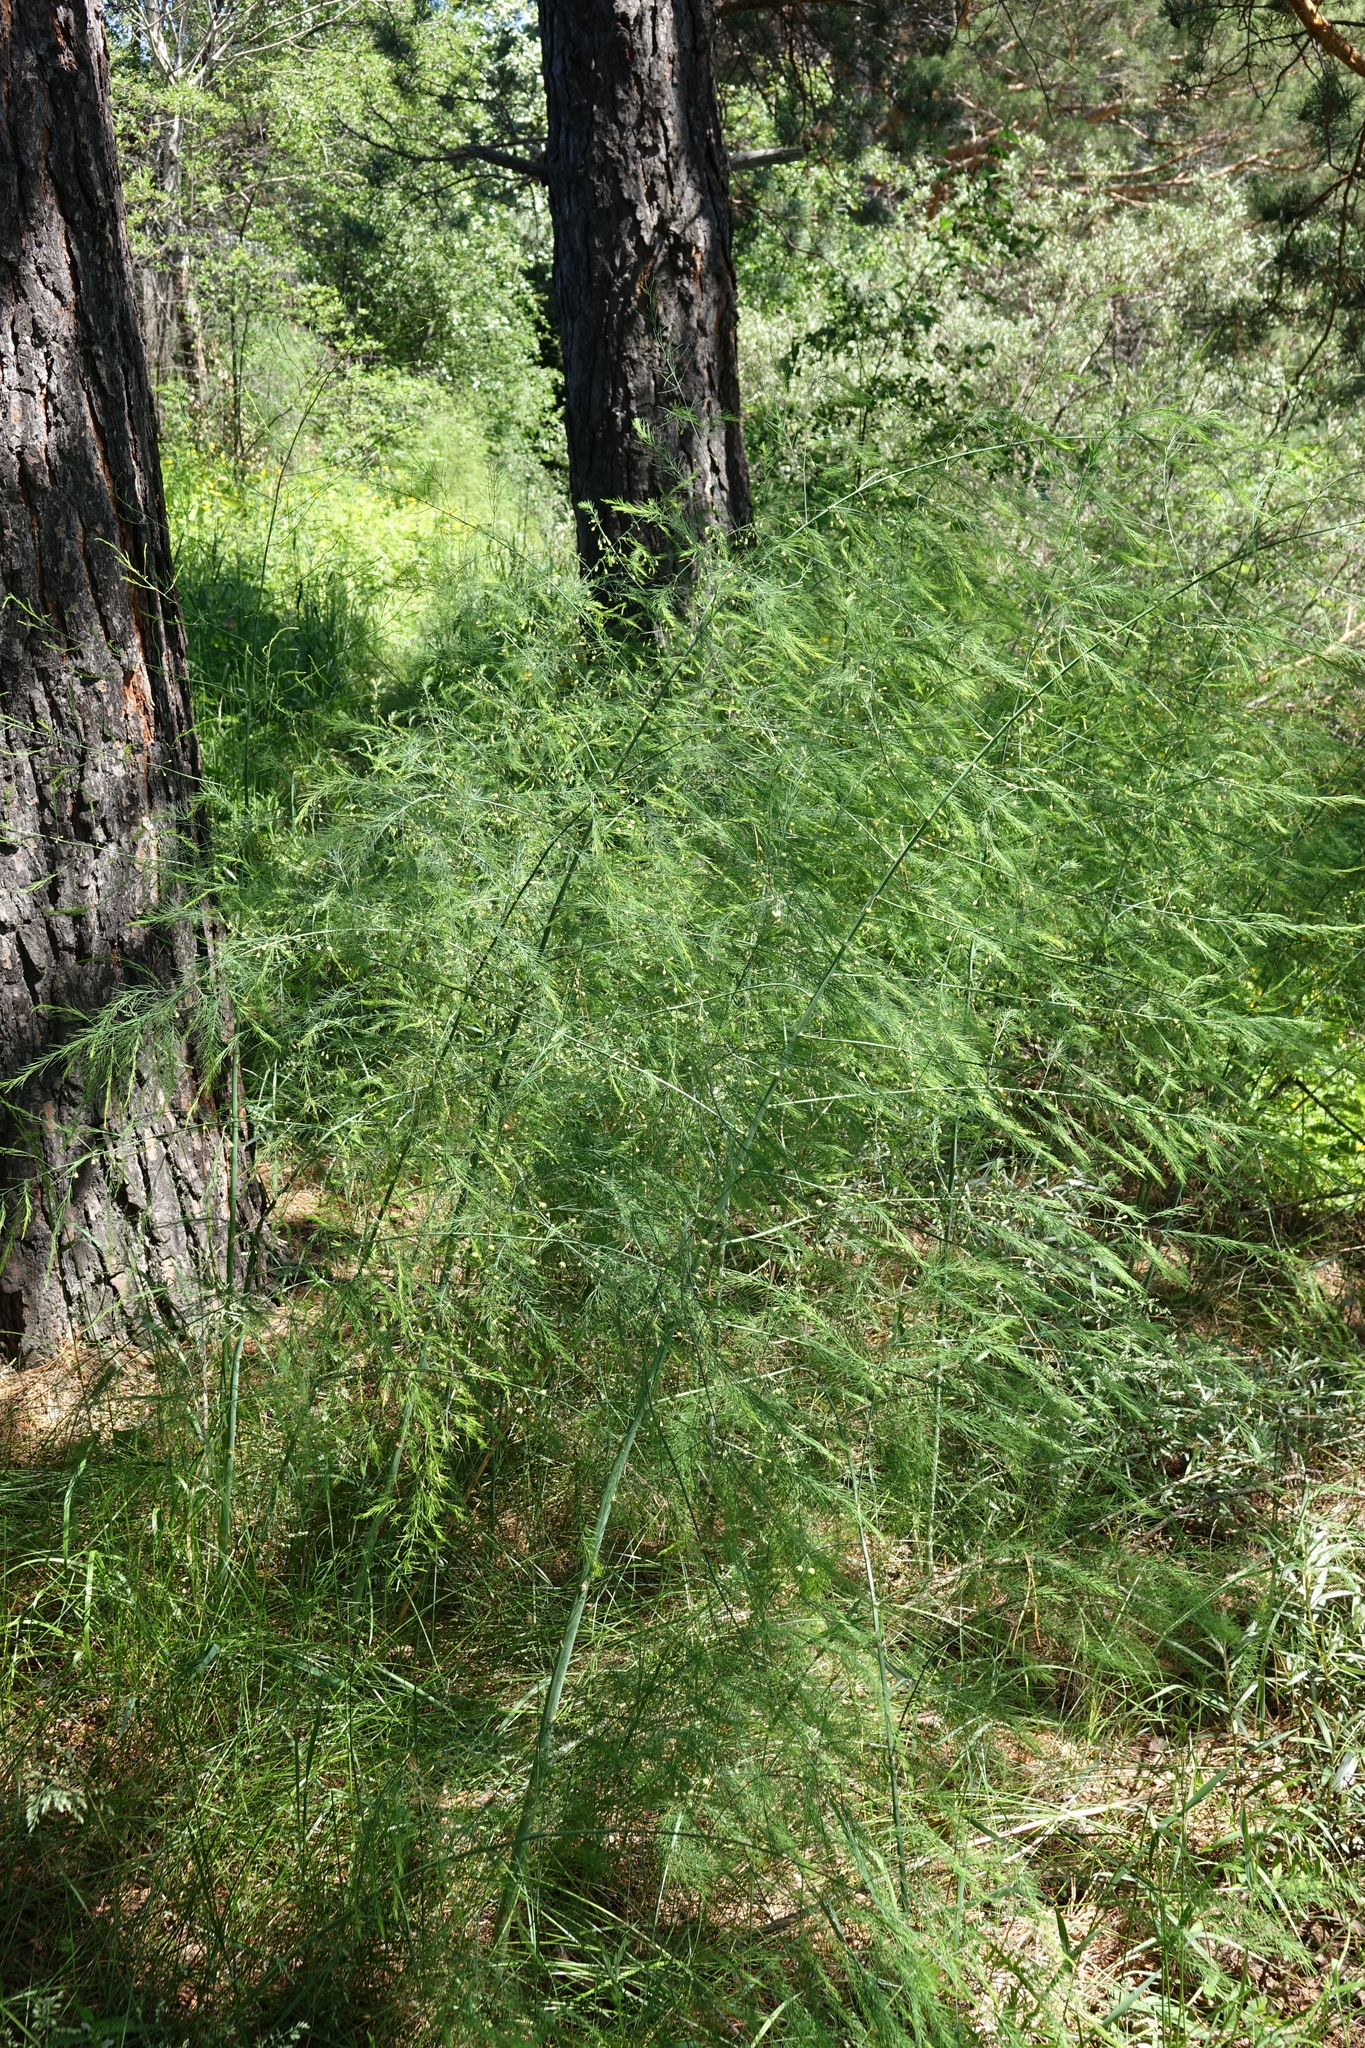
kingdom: Plantae
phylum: Tracheophyta
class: Liliopsida
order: Asparagales
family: Asparagaceae
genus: Asparagus
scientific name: Asparagus officinalis
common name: Garden asparagus
